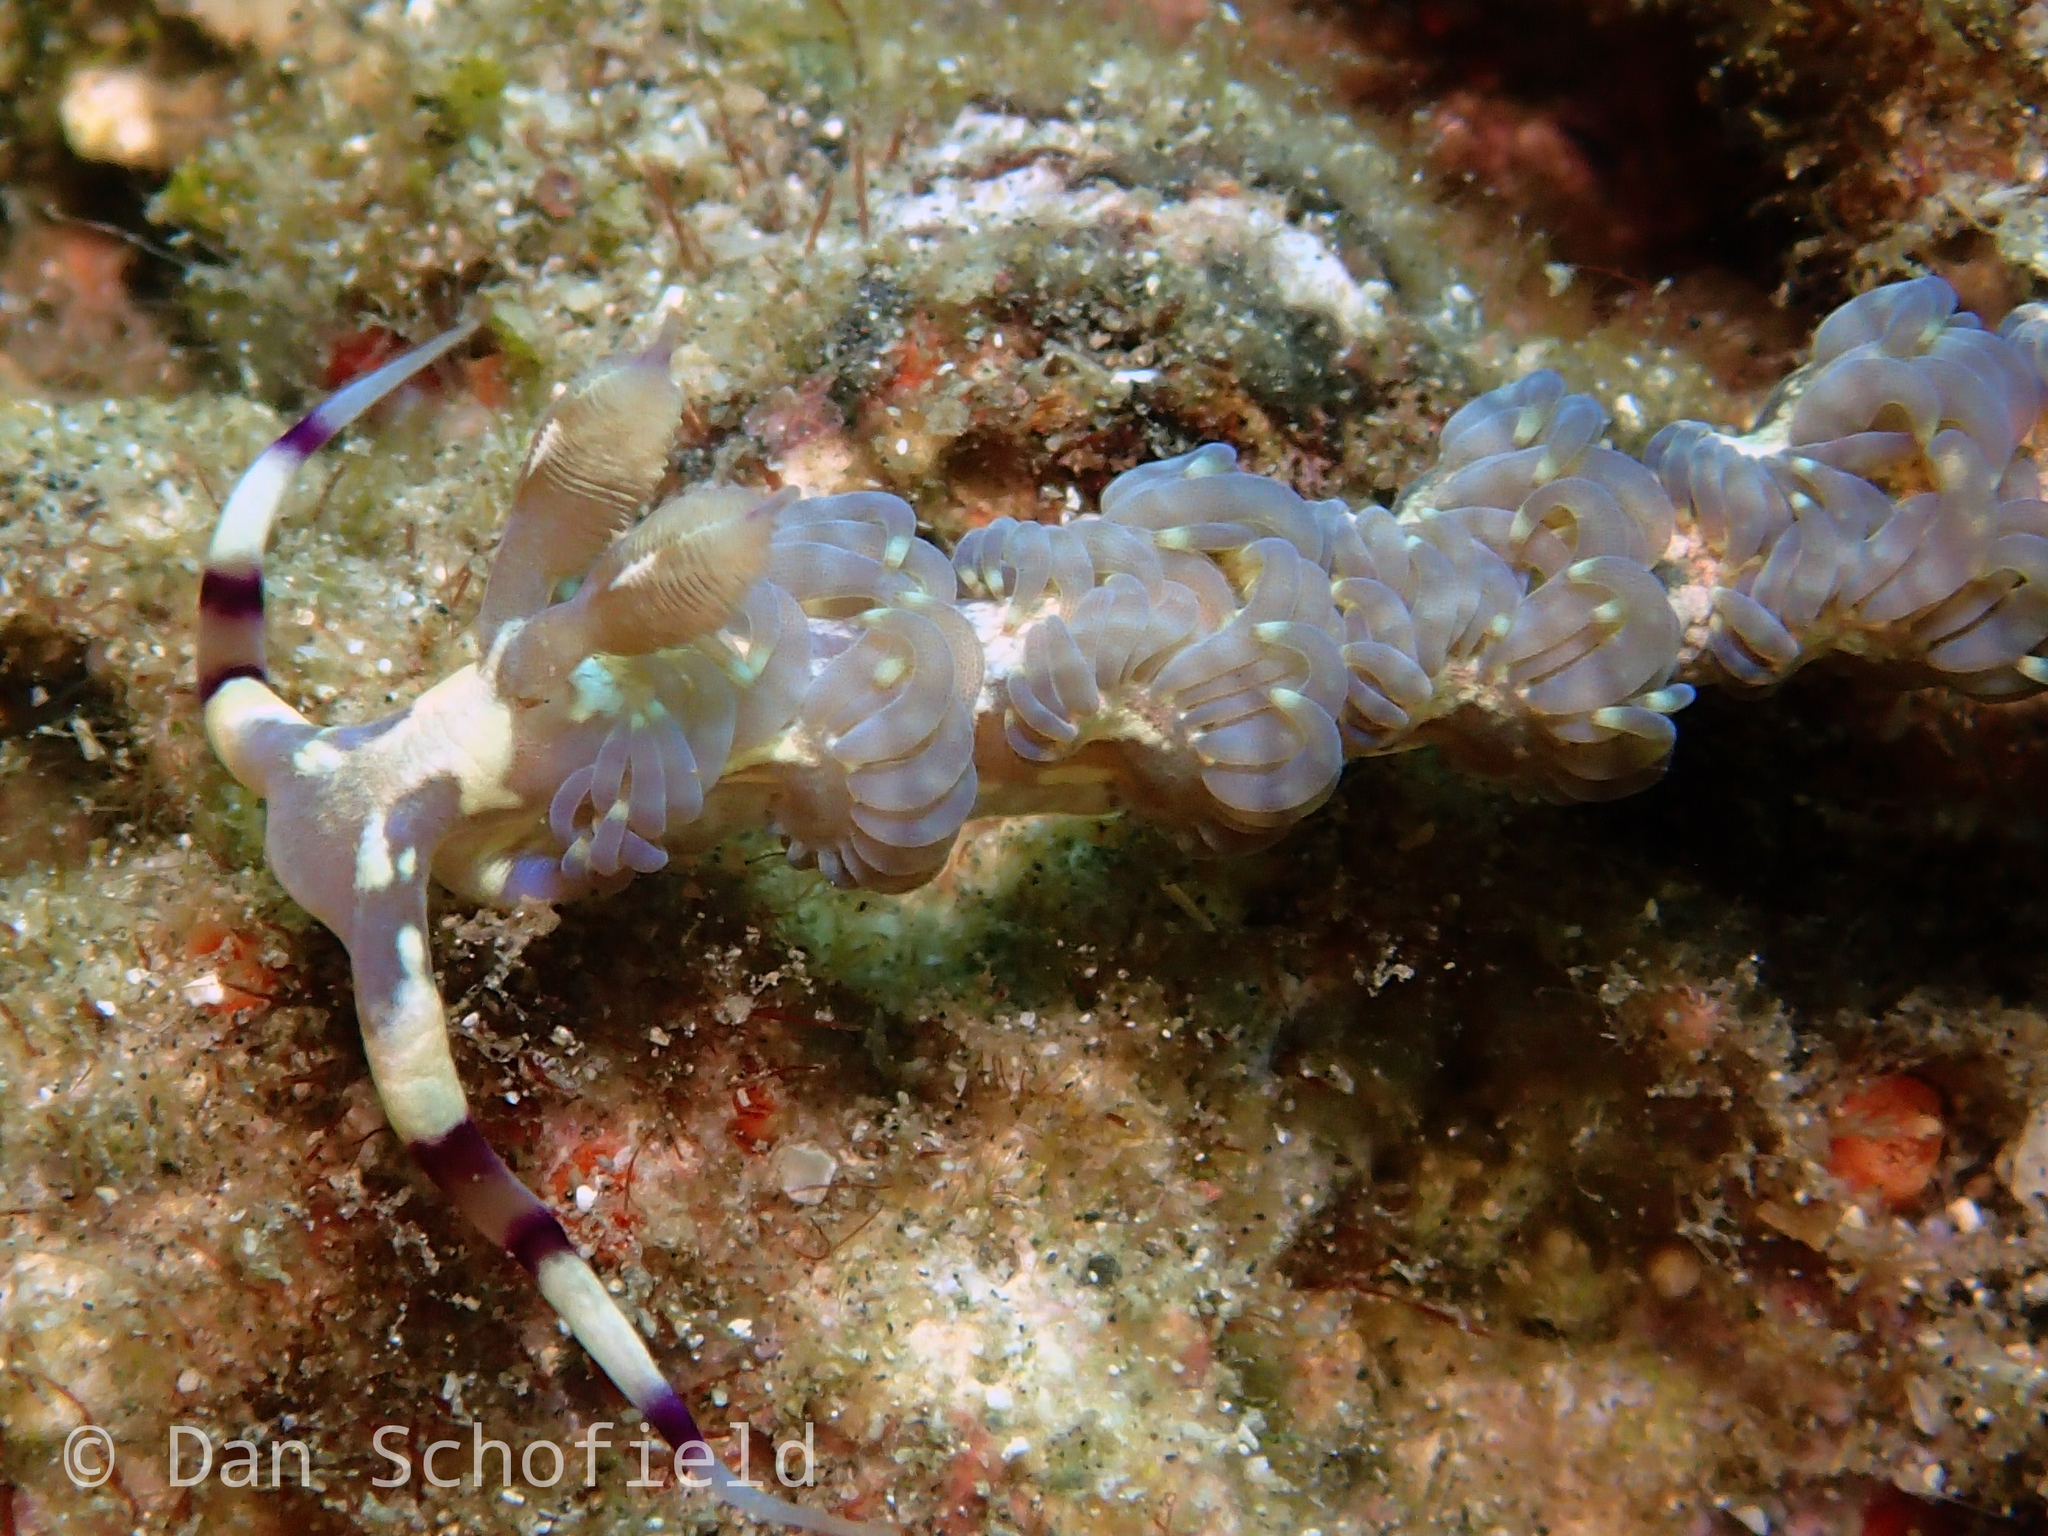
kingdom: Animalia
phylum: Mollusca
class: Gastropoda
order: Nudibranchia
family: Facelinidae
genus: Pteraeolidia
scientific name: Pteraeolidia semperi
